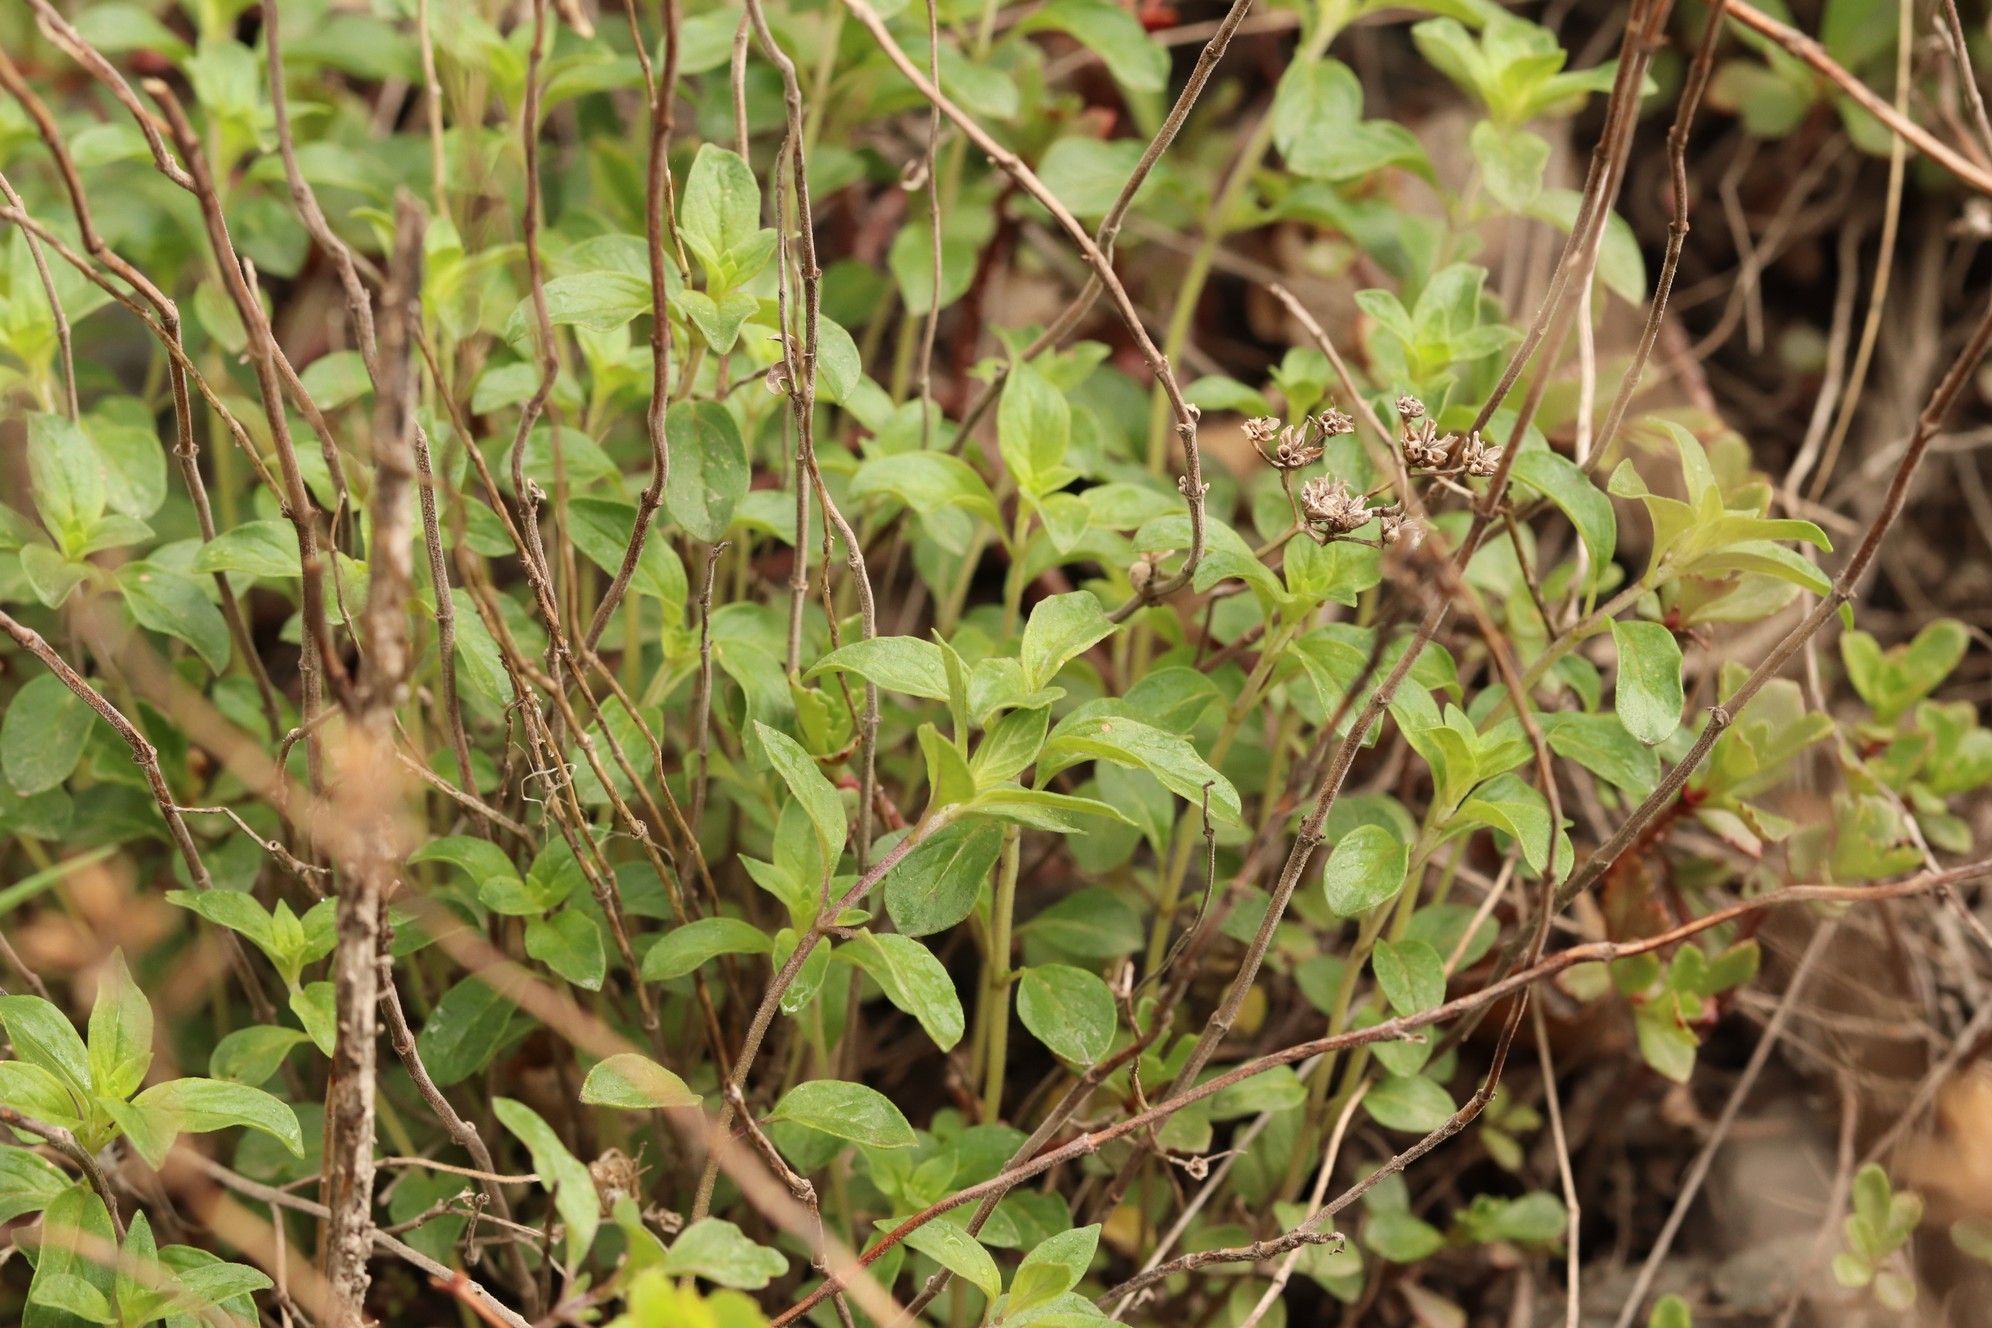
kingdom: Plantae
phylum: Tracheophyta
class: Magnoliopsida
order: Lamiales
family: Lamiaceae
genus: Ziziphora
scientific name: Ziziphora clinopodioides
